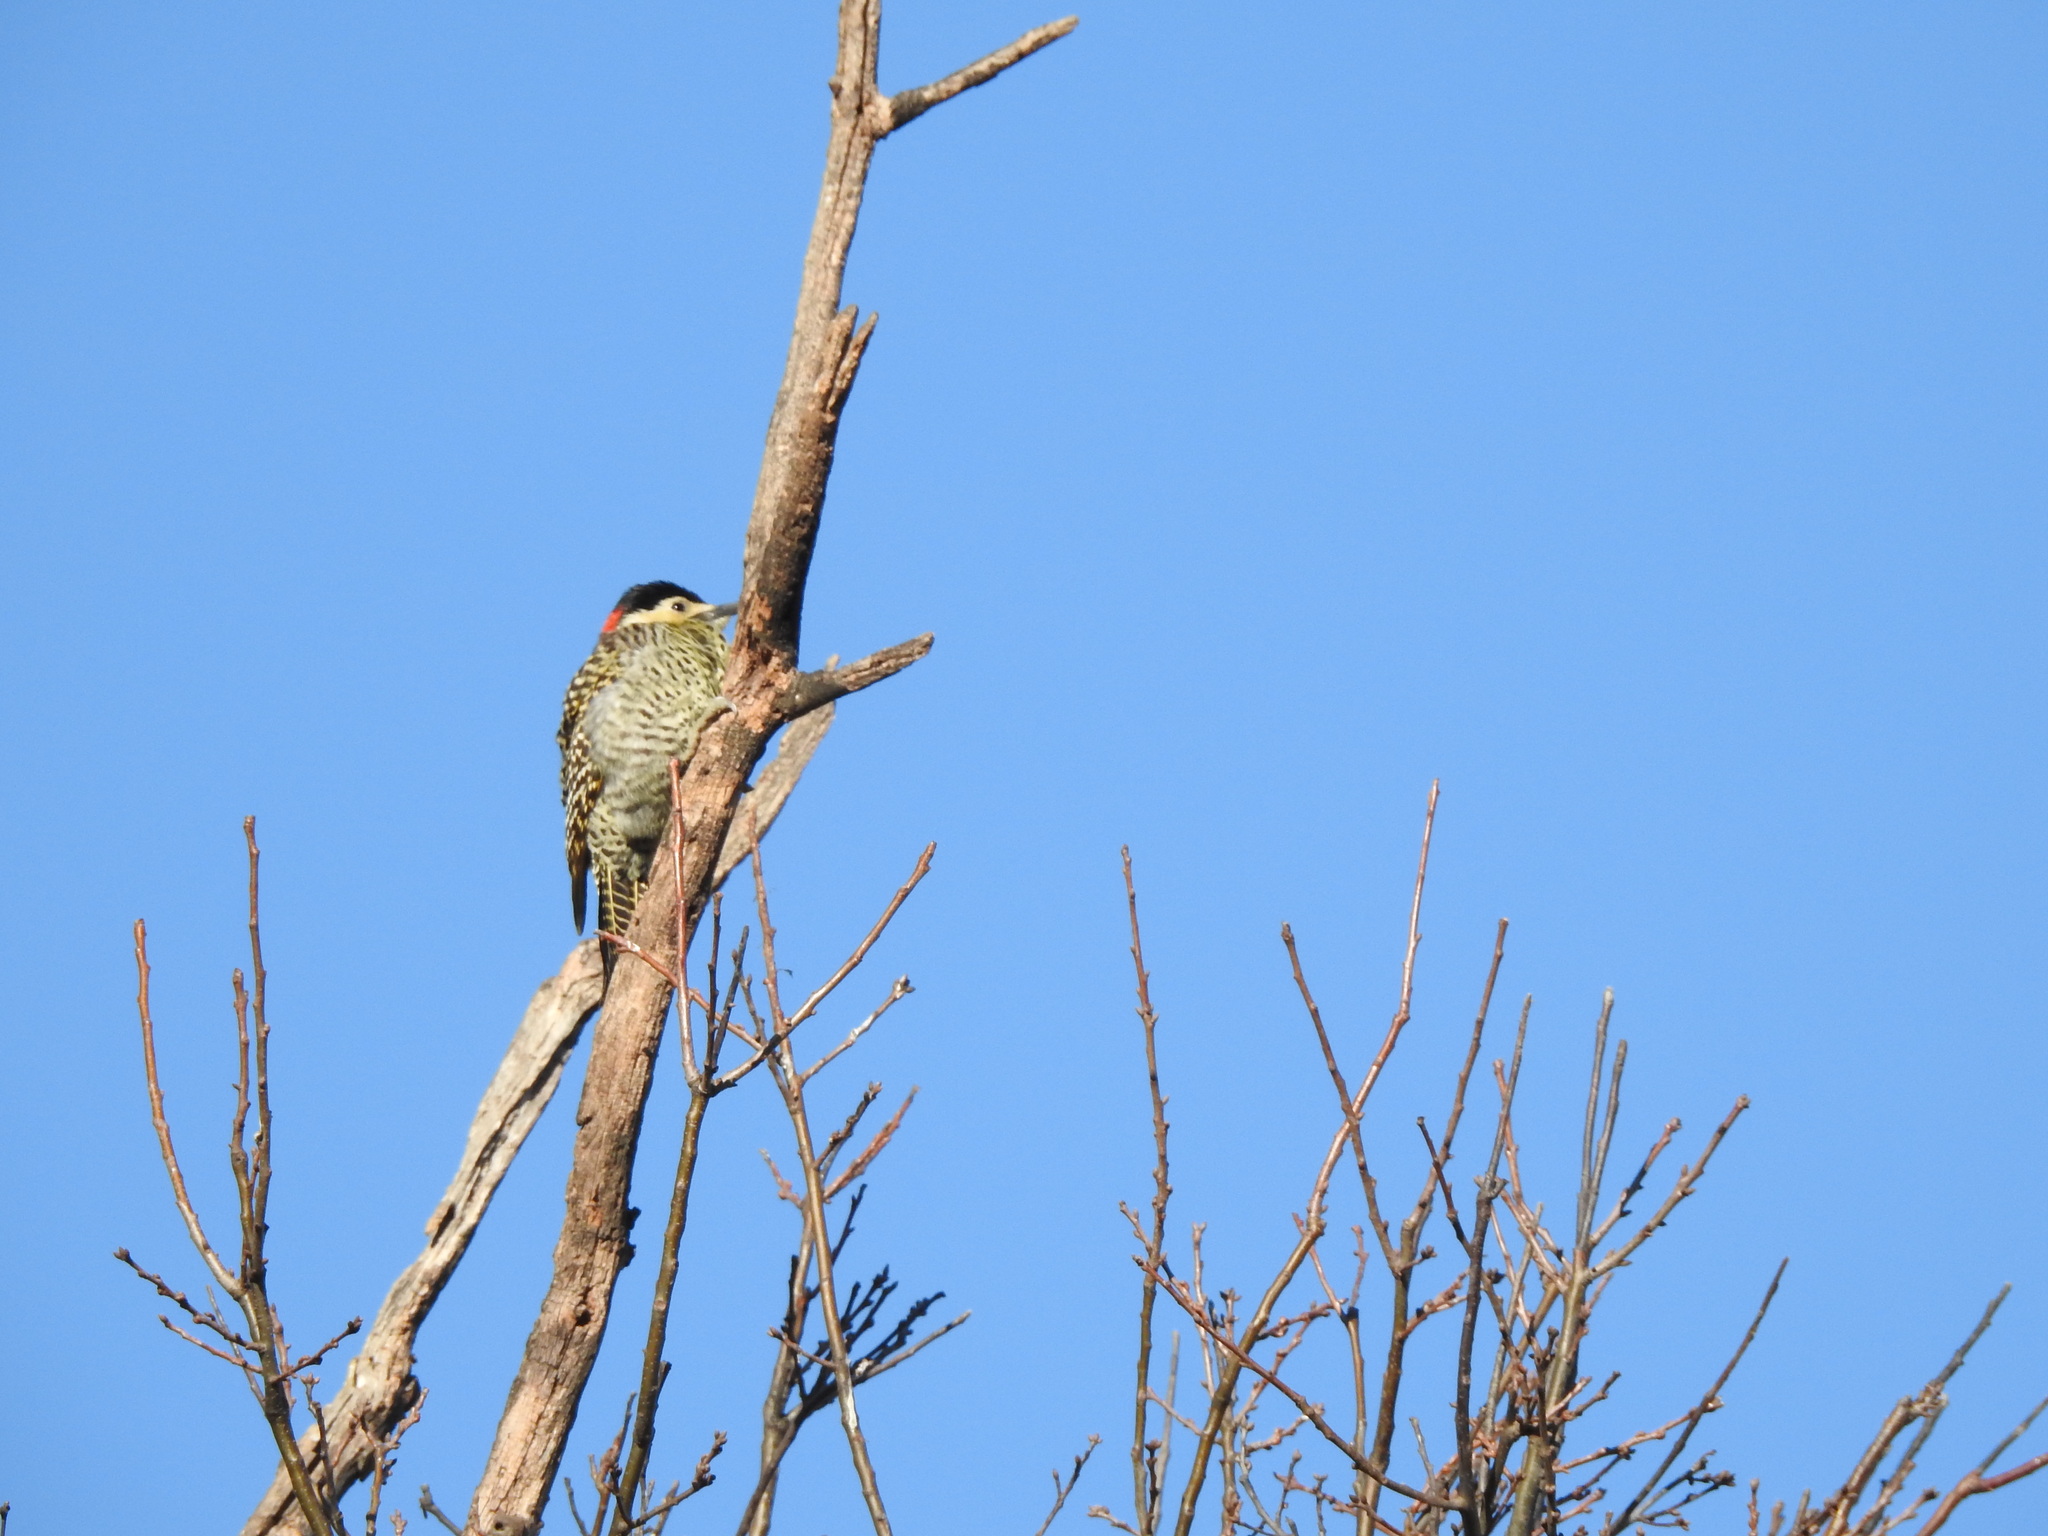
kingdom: Animalia
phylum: Chordata
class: Aves
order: Piciformes
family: Picidae
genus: Colaptes
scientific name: Colaptes melanochloros
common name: Green-barred woodpecker
